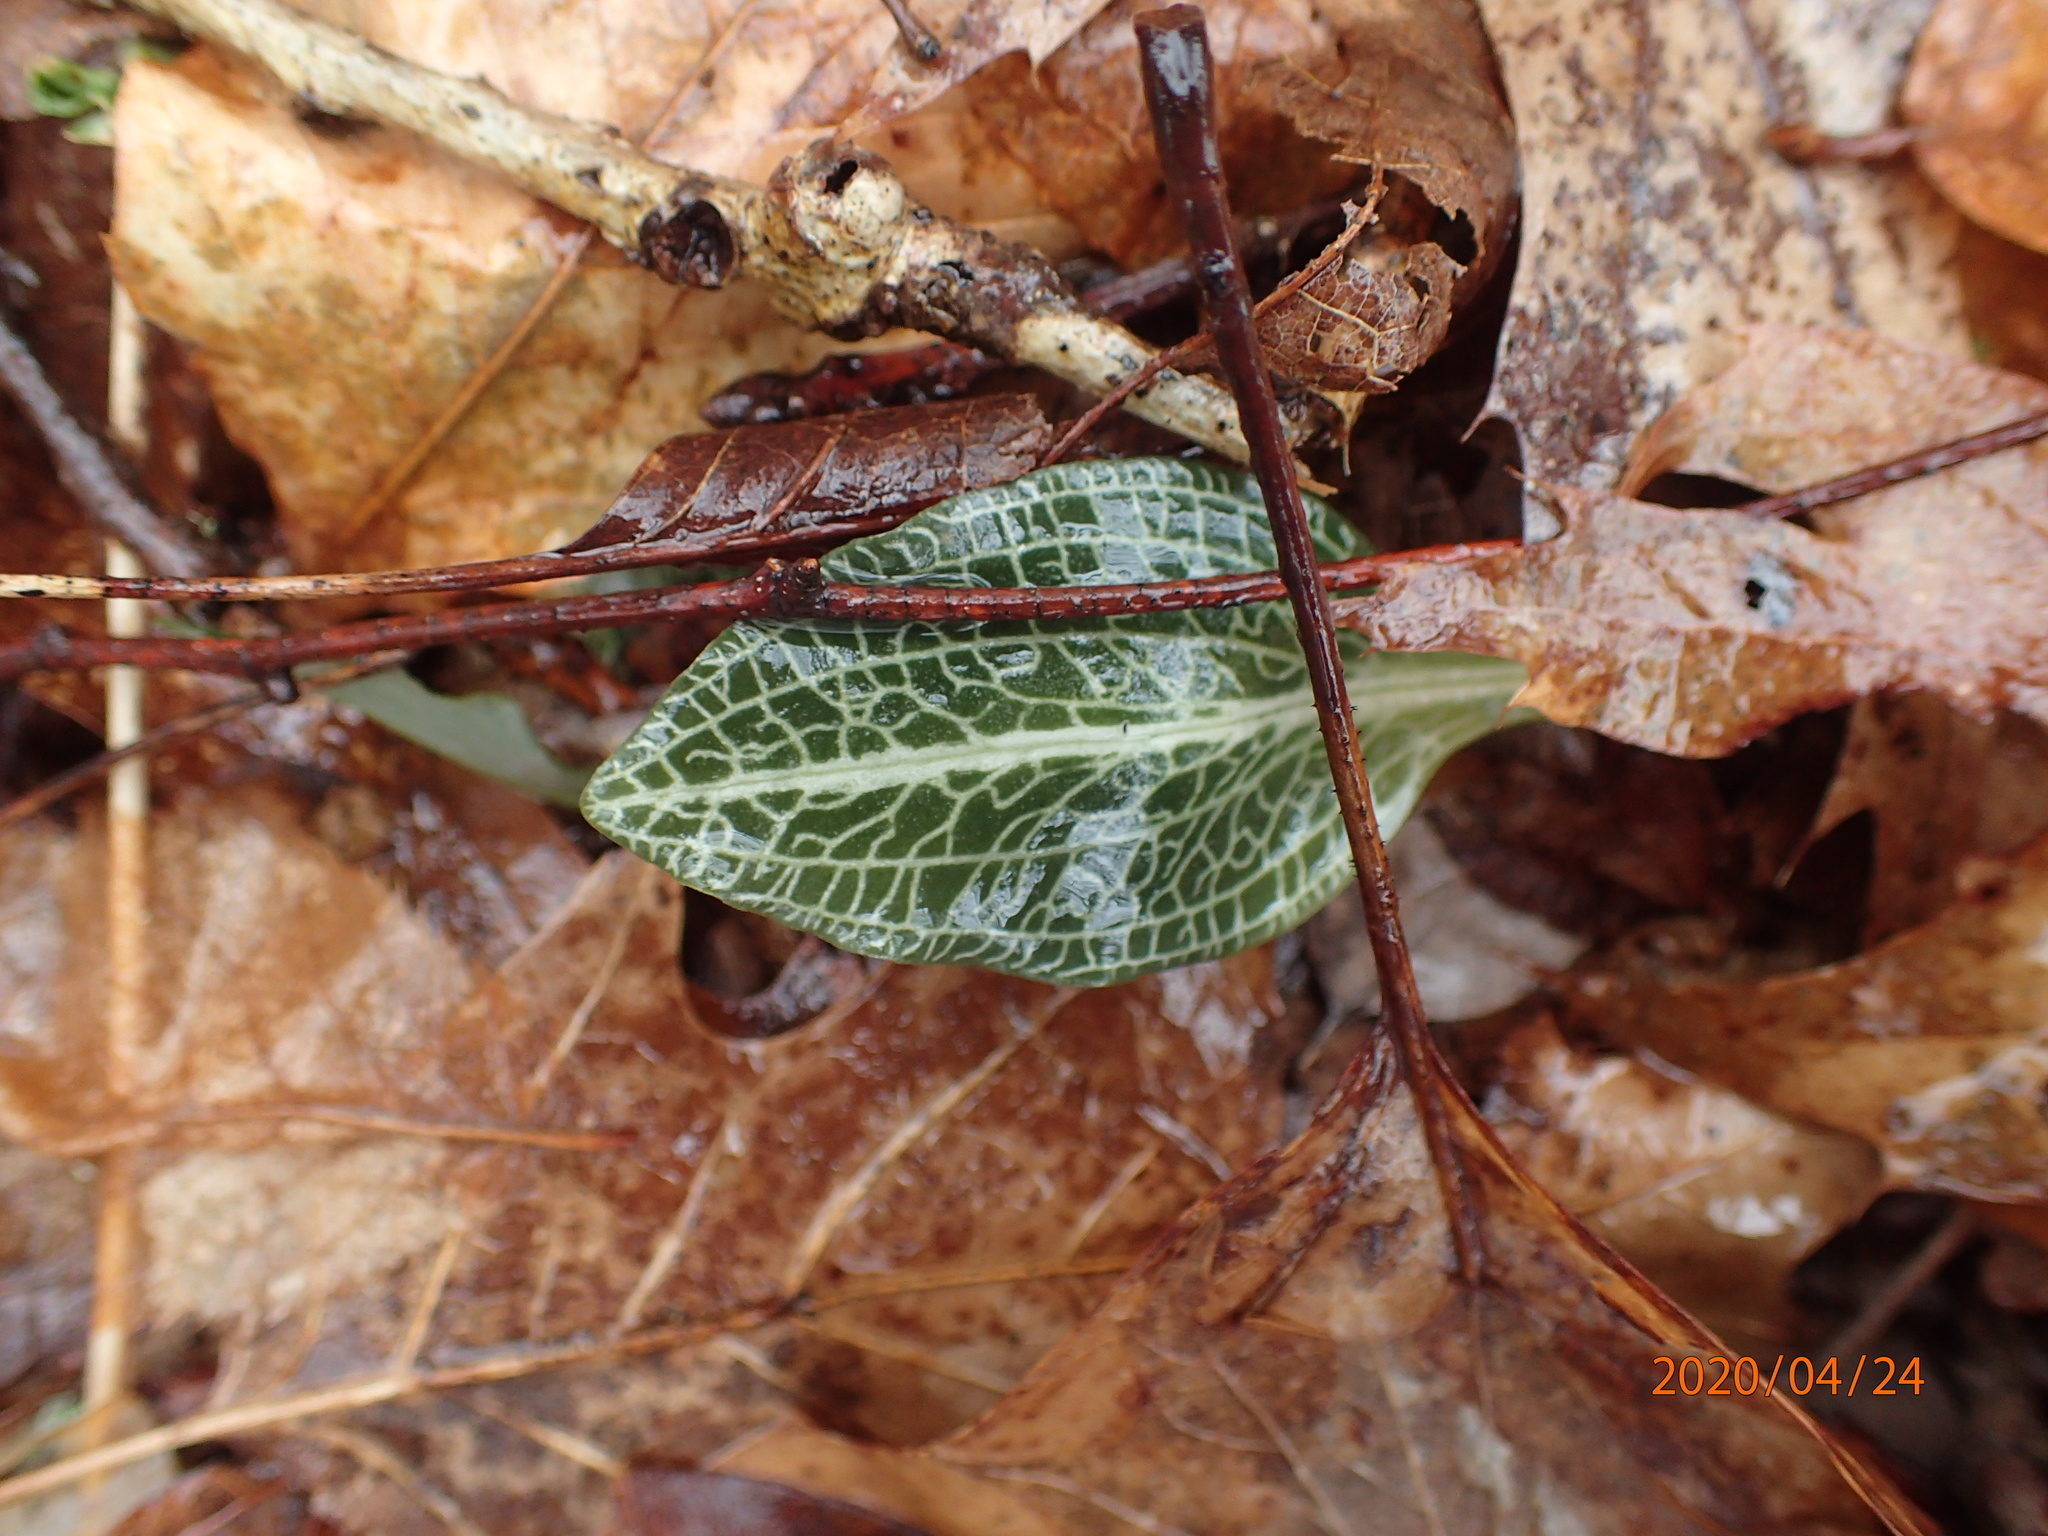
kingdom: Plantae
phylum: Tracheophyta
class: Liliopsida
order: Asparagales
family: Orchidaceae
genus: Goodyera
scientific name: Goodyera pubescens
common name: Downy rattlesnake-plantain
